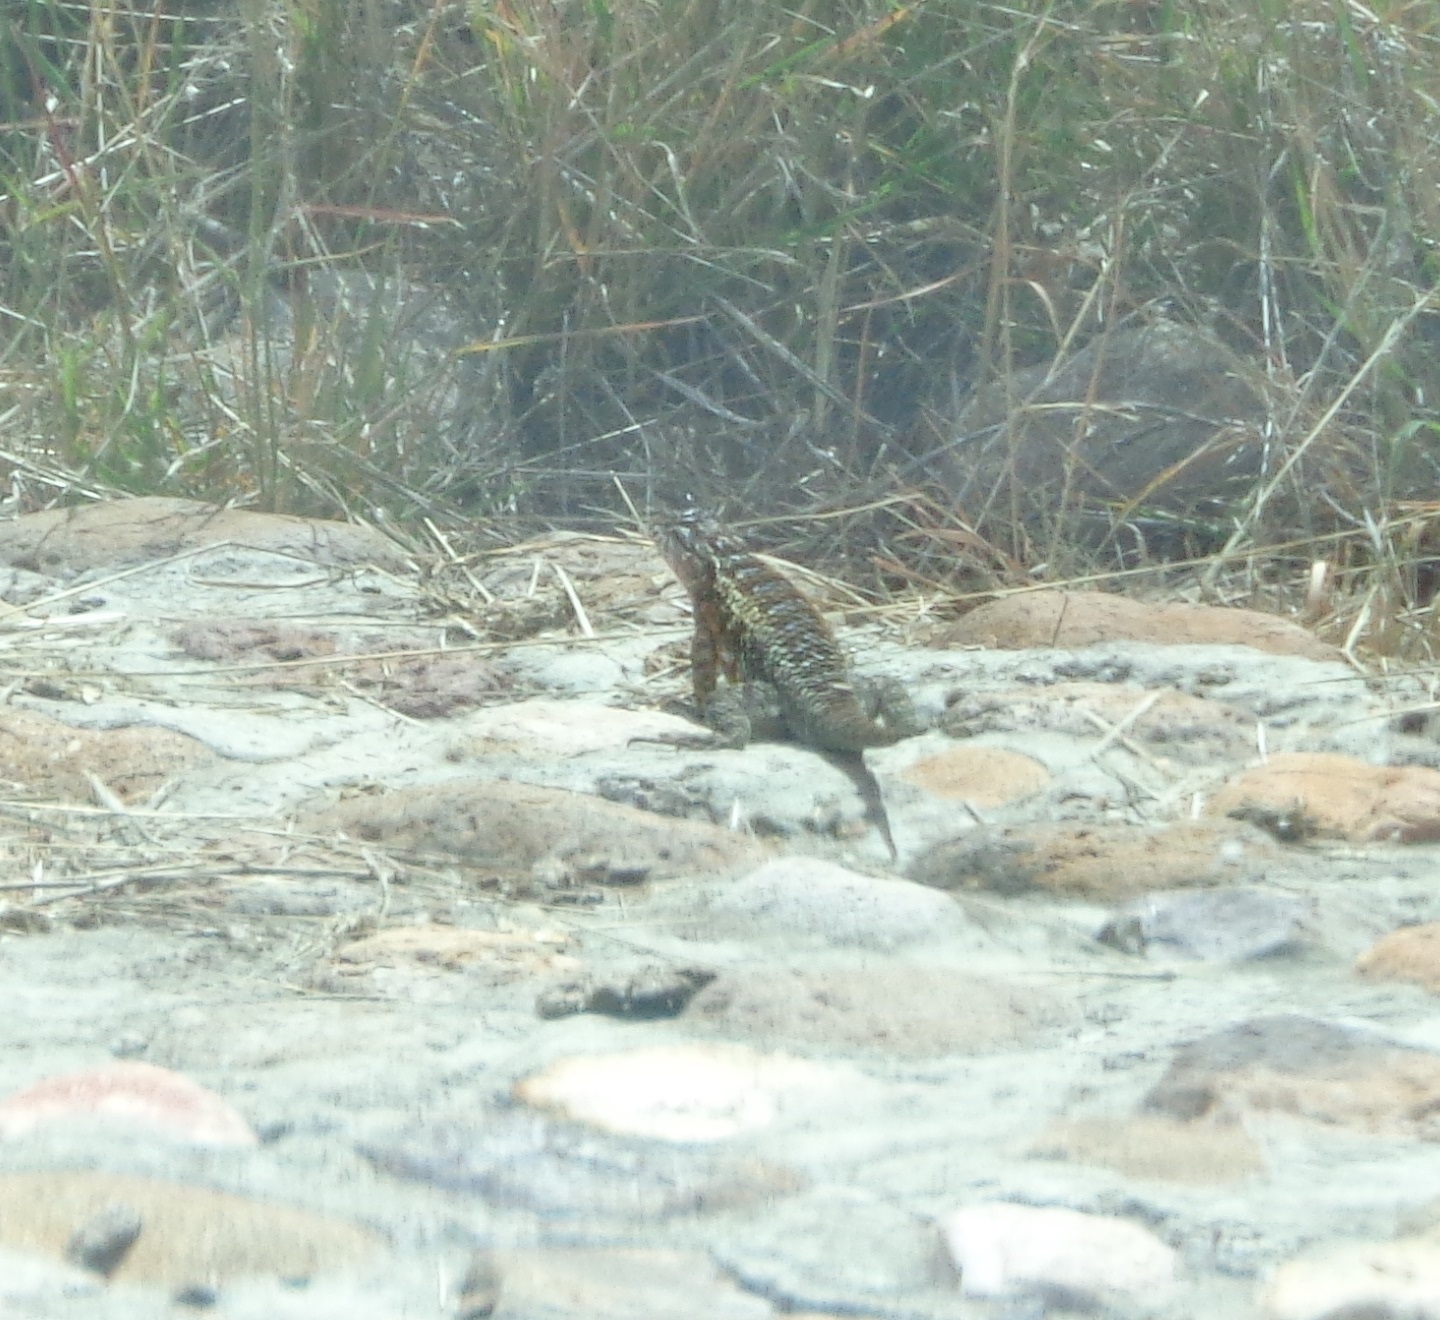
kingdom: Animalia
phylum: Chordata
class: Squamata
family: Phrynosomatidae
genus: Sceloporus
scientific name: Sceloporus spinosus
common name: Blue-spotted spiny lizard [caeruleopunctatus]
